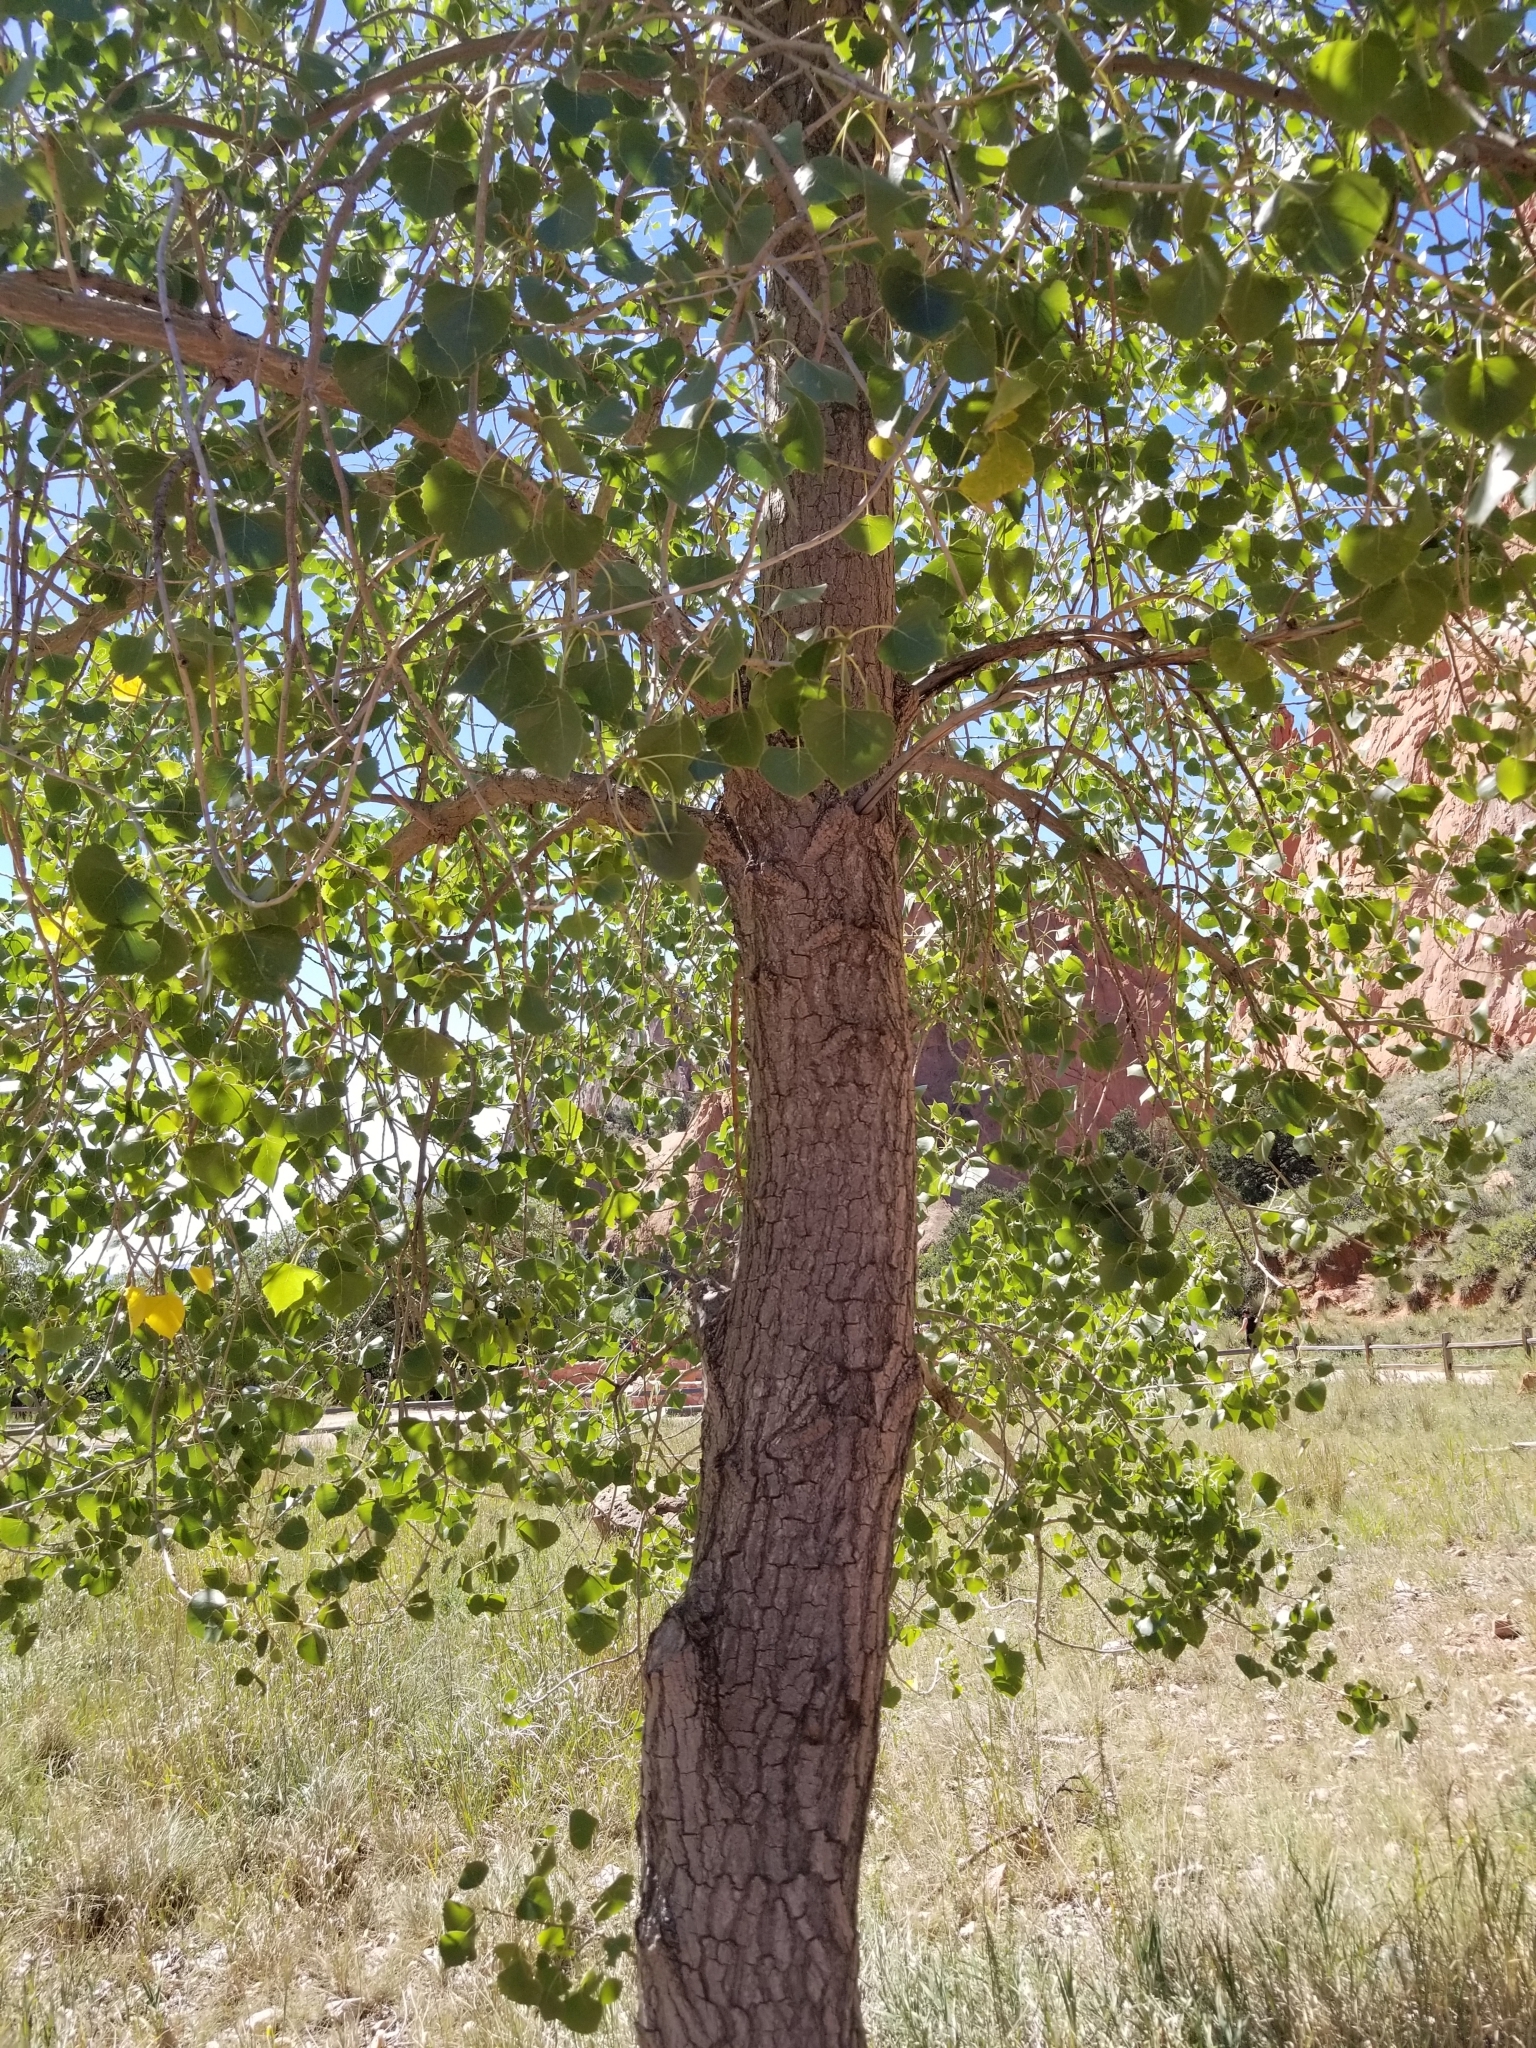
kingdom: Plantae
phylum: Tracheophyta
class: Magnoliopsida
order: Malpighiales
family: Salicaceae
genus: Populus
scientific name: Populus deltoides
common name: Eastern cottonwood
